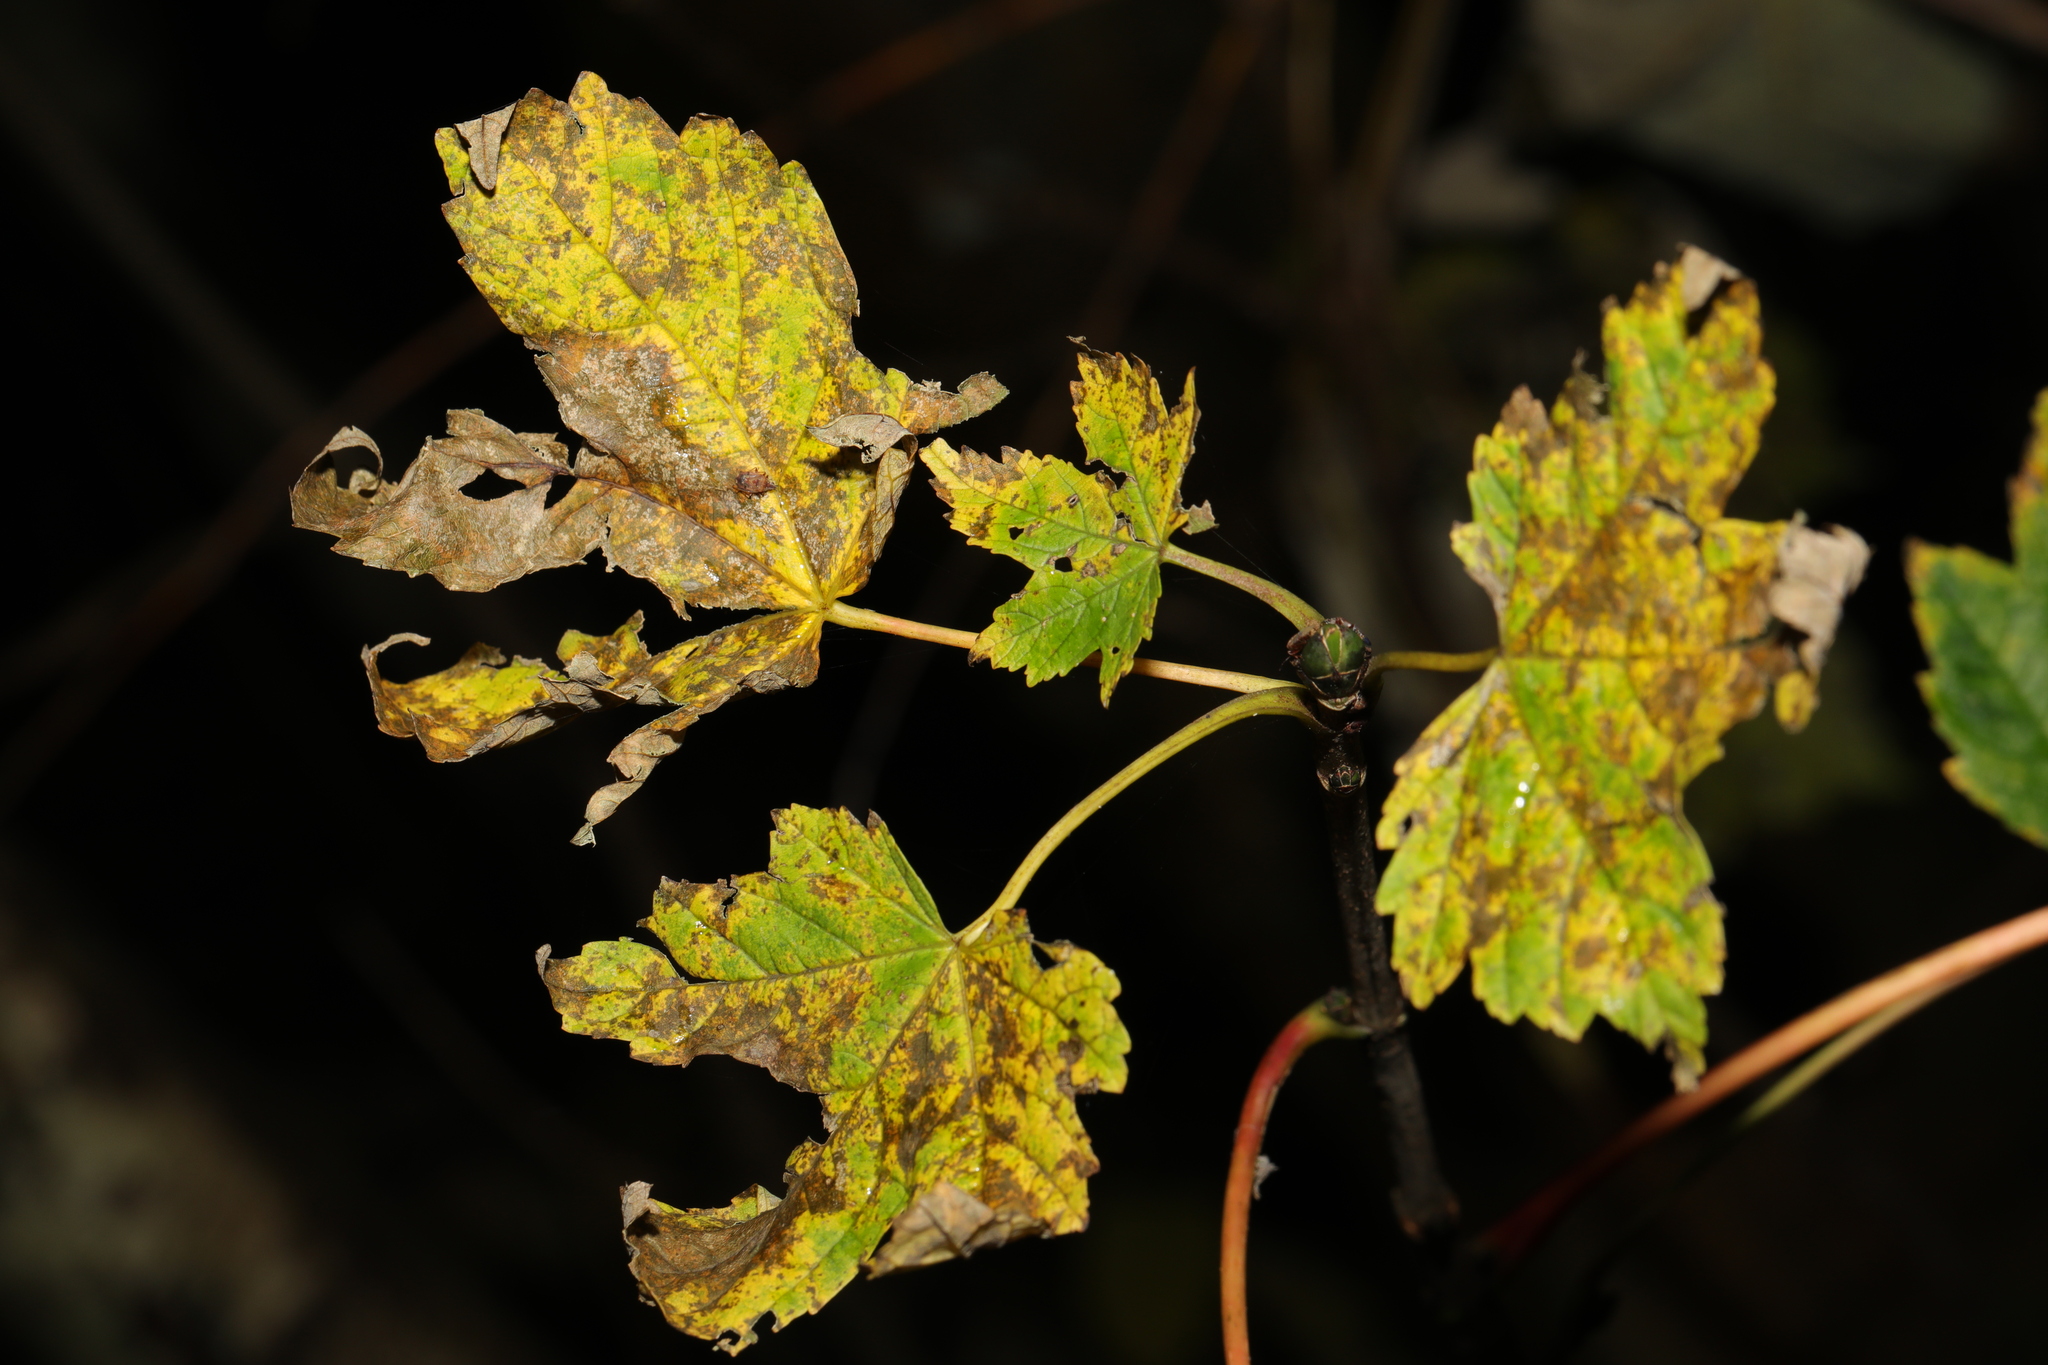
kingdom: Plantae
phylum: Tracheophyta
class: Magnoliopsida
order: Sapindales
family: Sapindaceae
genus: Acer
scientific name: Acer pseudoplatanus
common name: Sycamore
